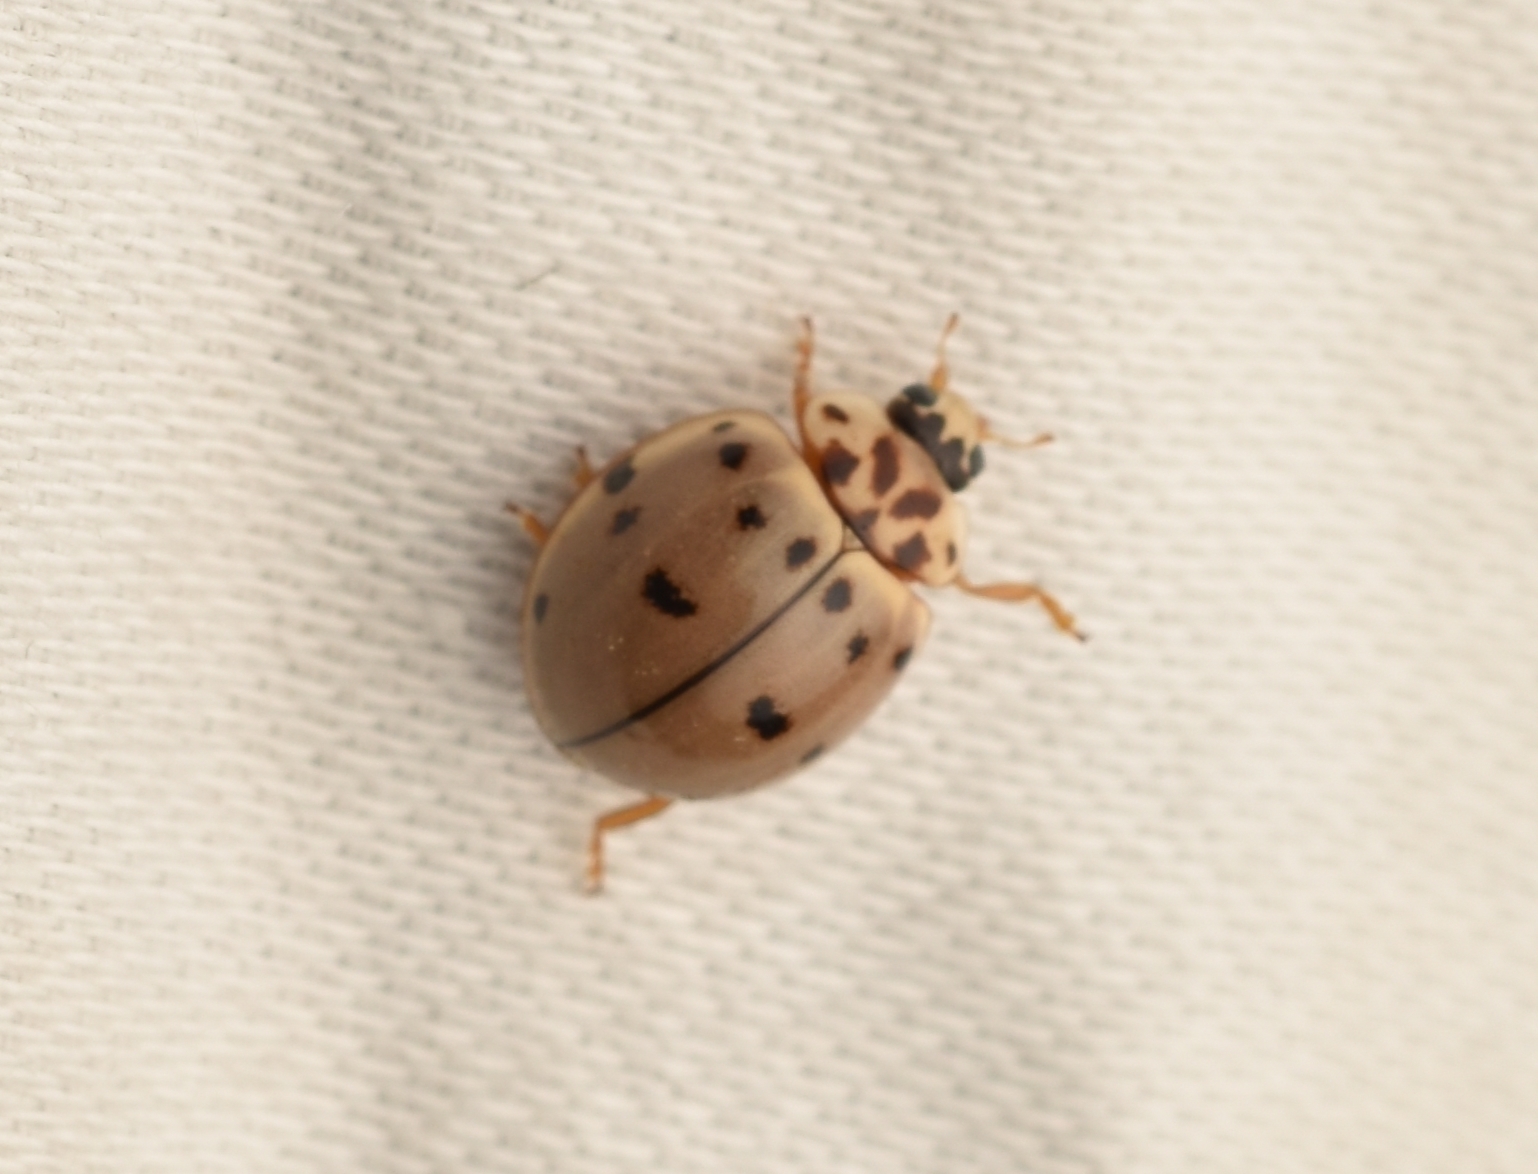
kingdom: Animalia
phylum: Arthropoda
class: Insecta
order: Coleoptera
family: Coccinellidae
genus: Olla
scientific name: Olla v-nigrum
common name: Ashy gray lady beetle
